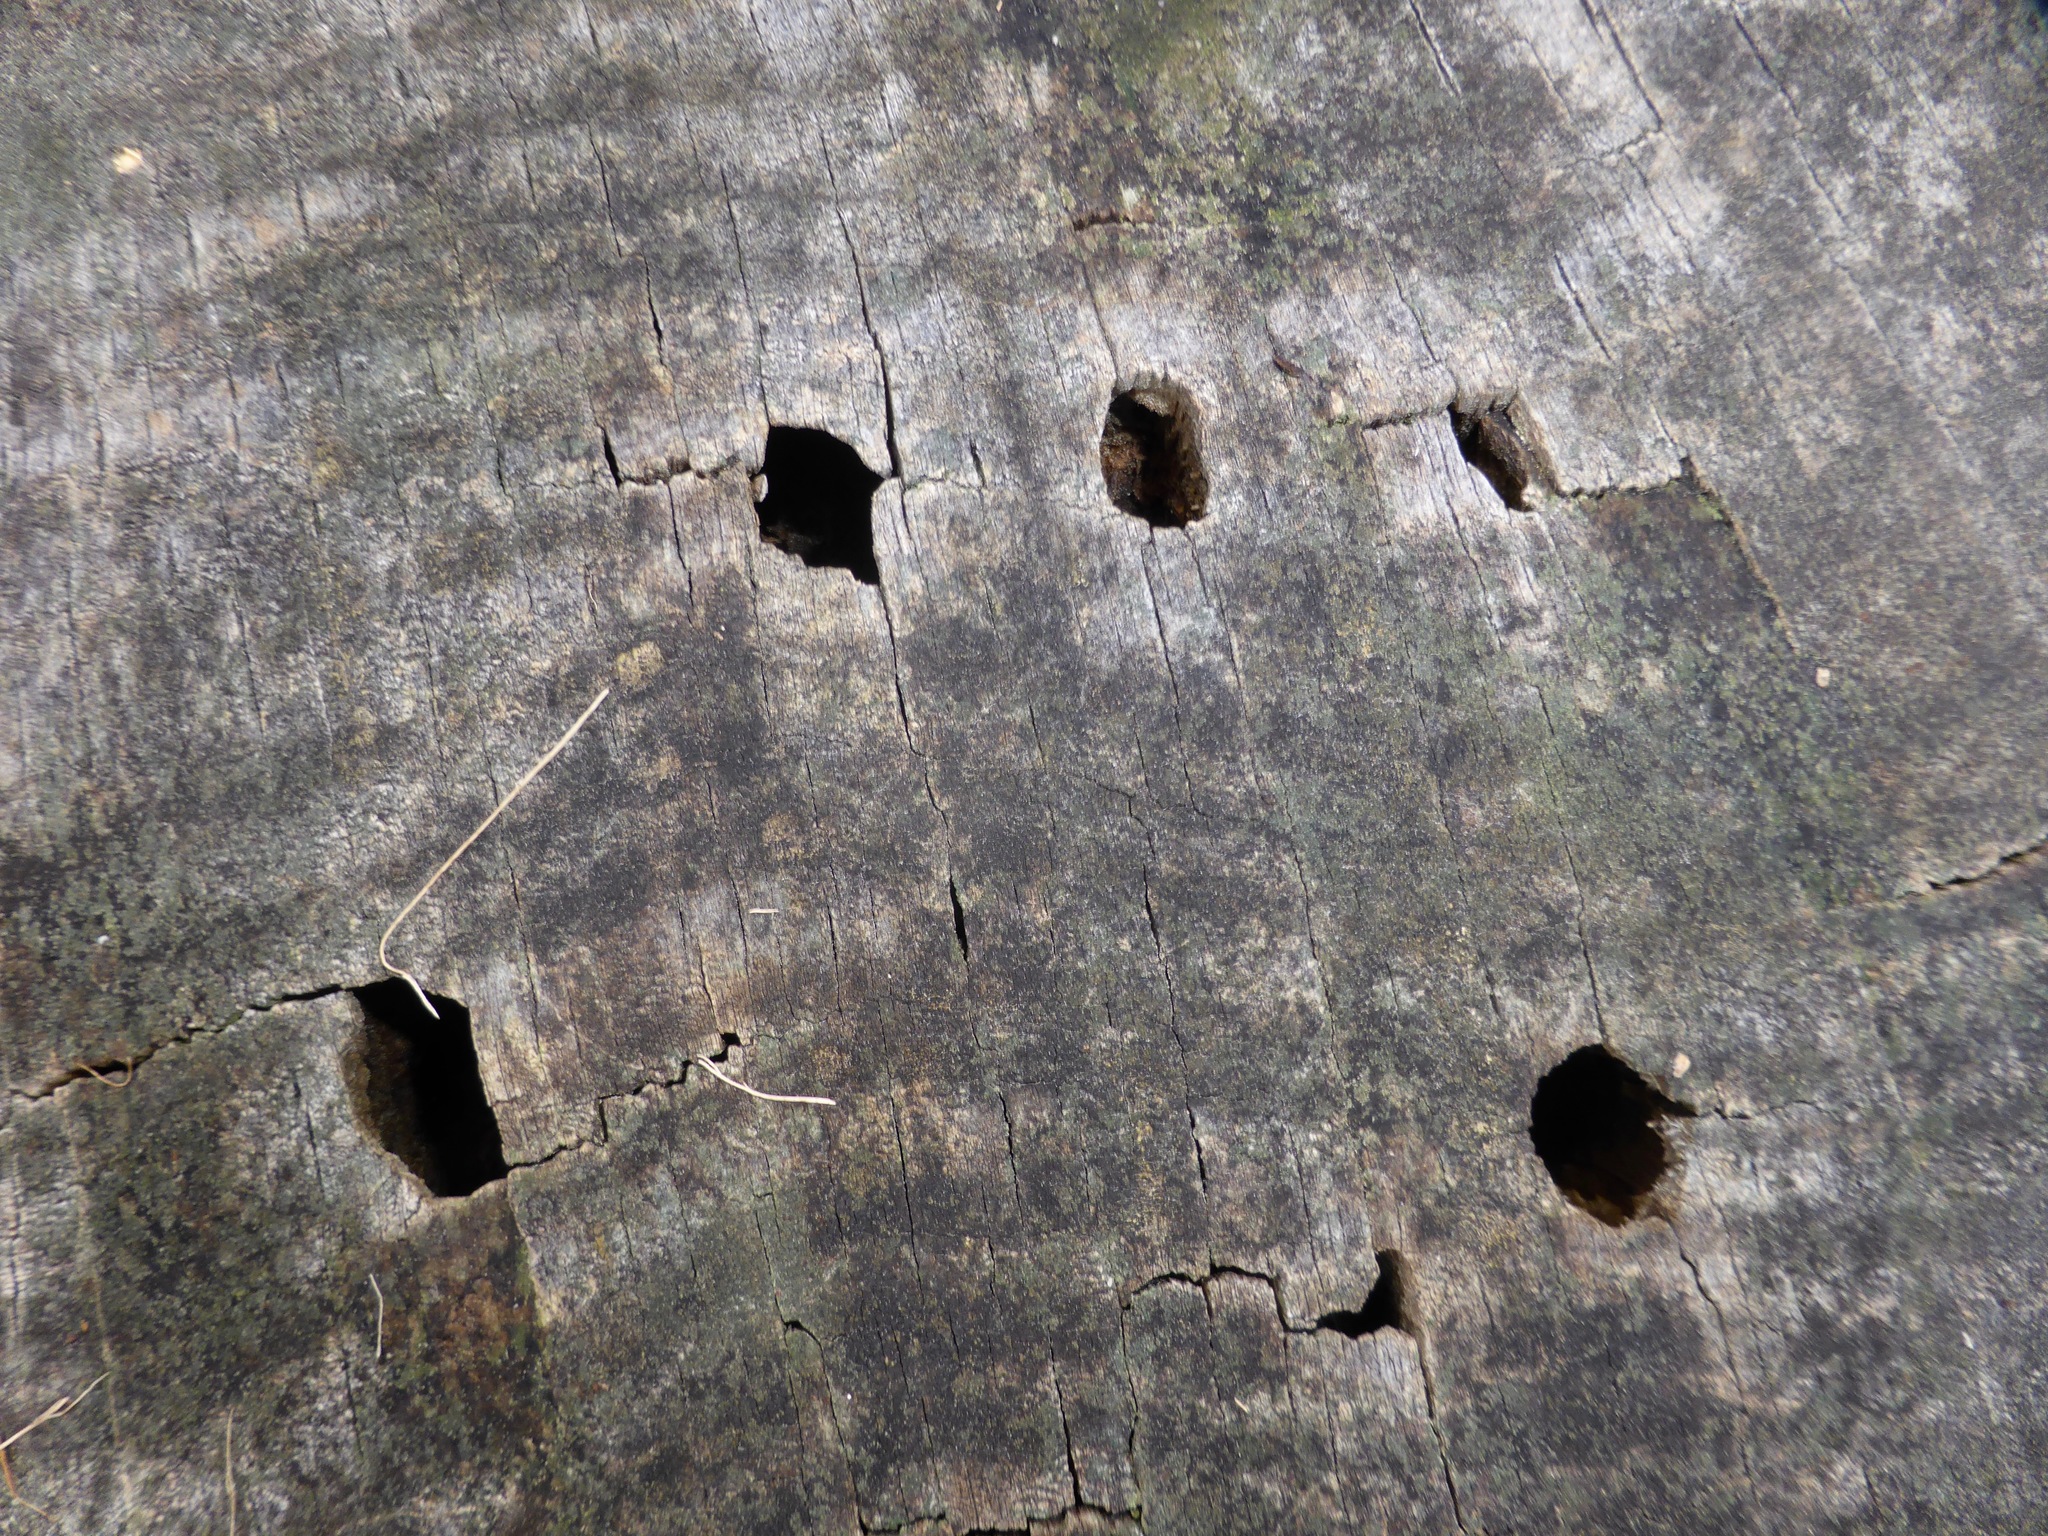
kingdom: Animalia
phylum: Arthropoda
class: Insecta
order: Coleoptera
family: Cerambycidae
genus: Prionoplus
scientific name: Prionoplus reticularis
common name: Huhu beetle
